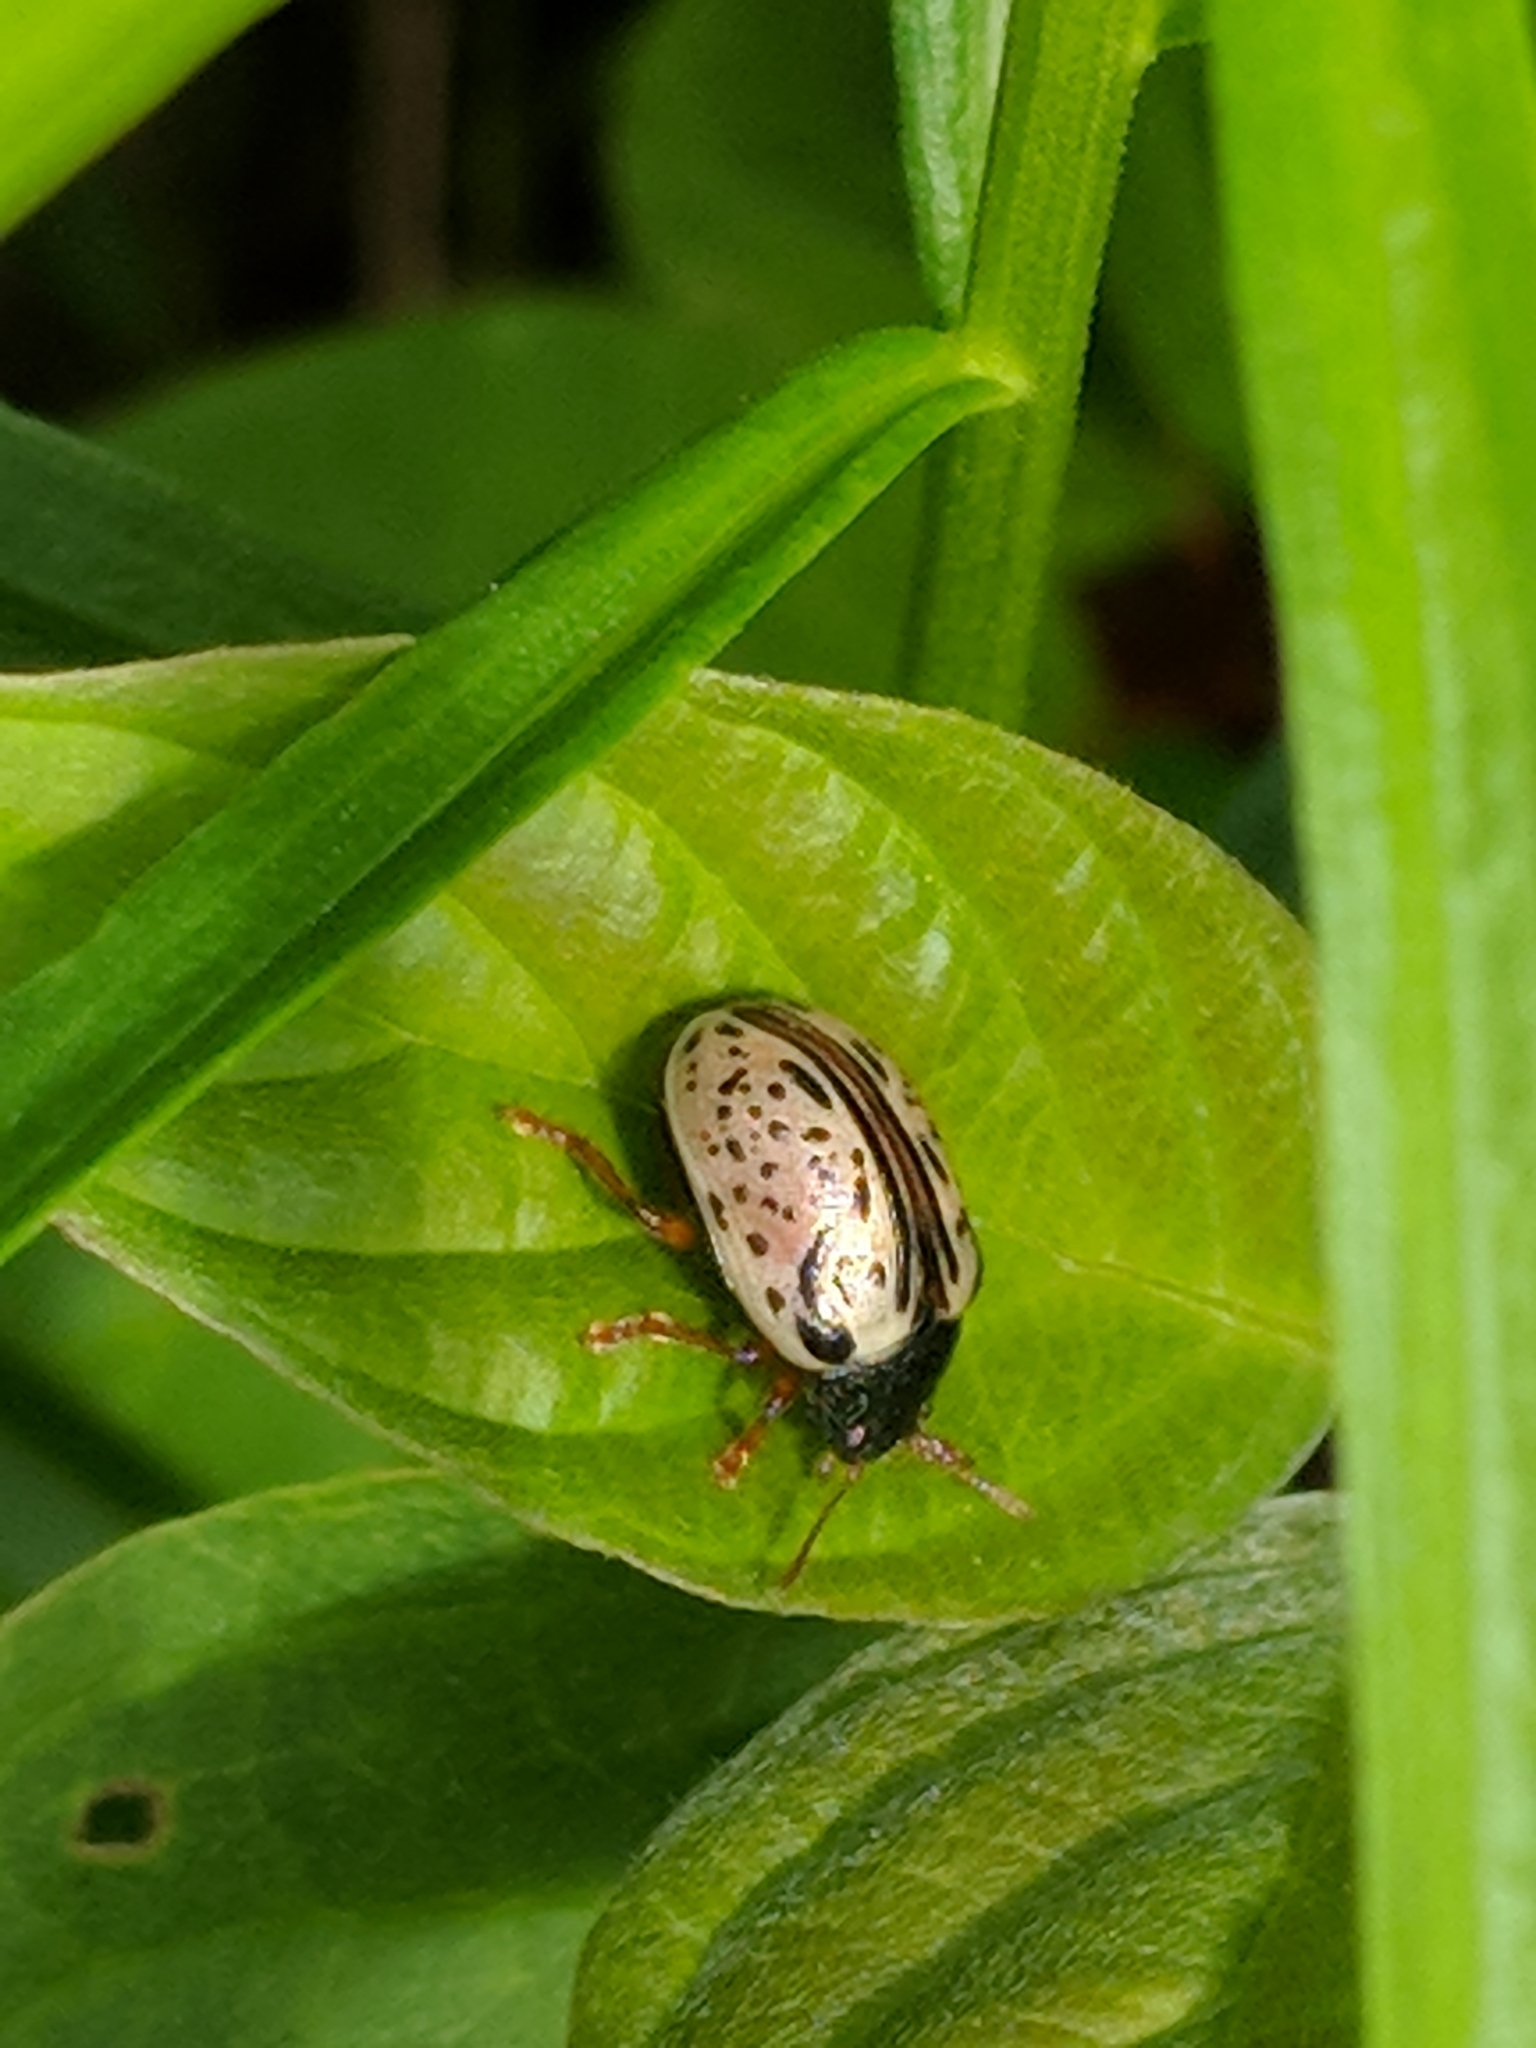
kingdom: Animalia
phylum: Arthropoda
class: Insecta
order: Coleoptera
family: Chrysomelidae
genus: Calligrapha
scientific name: Calligrapha confluens
